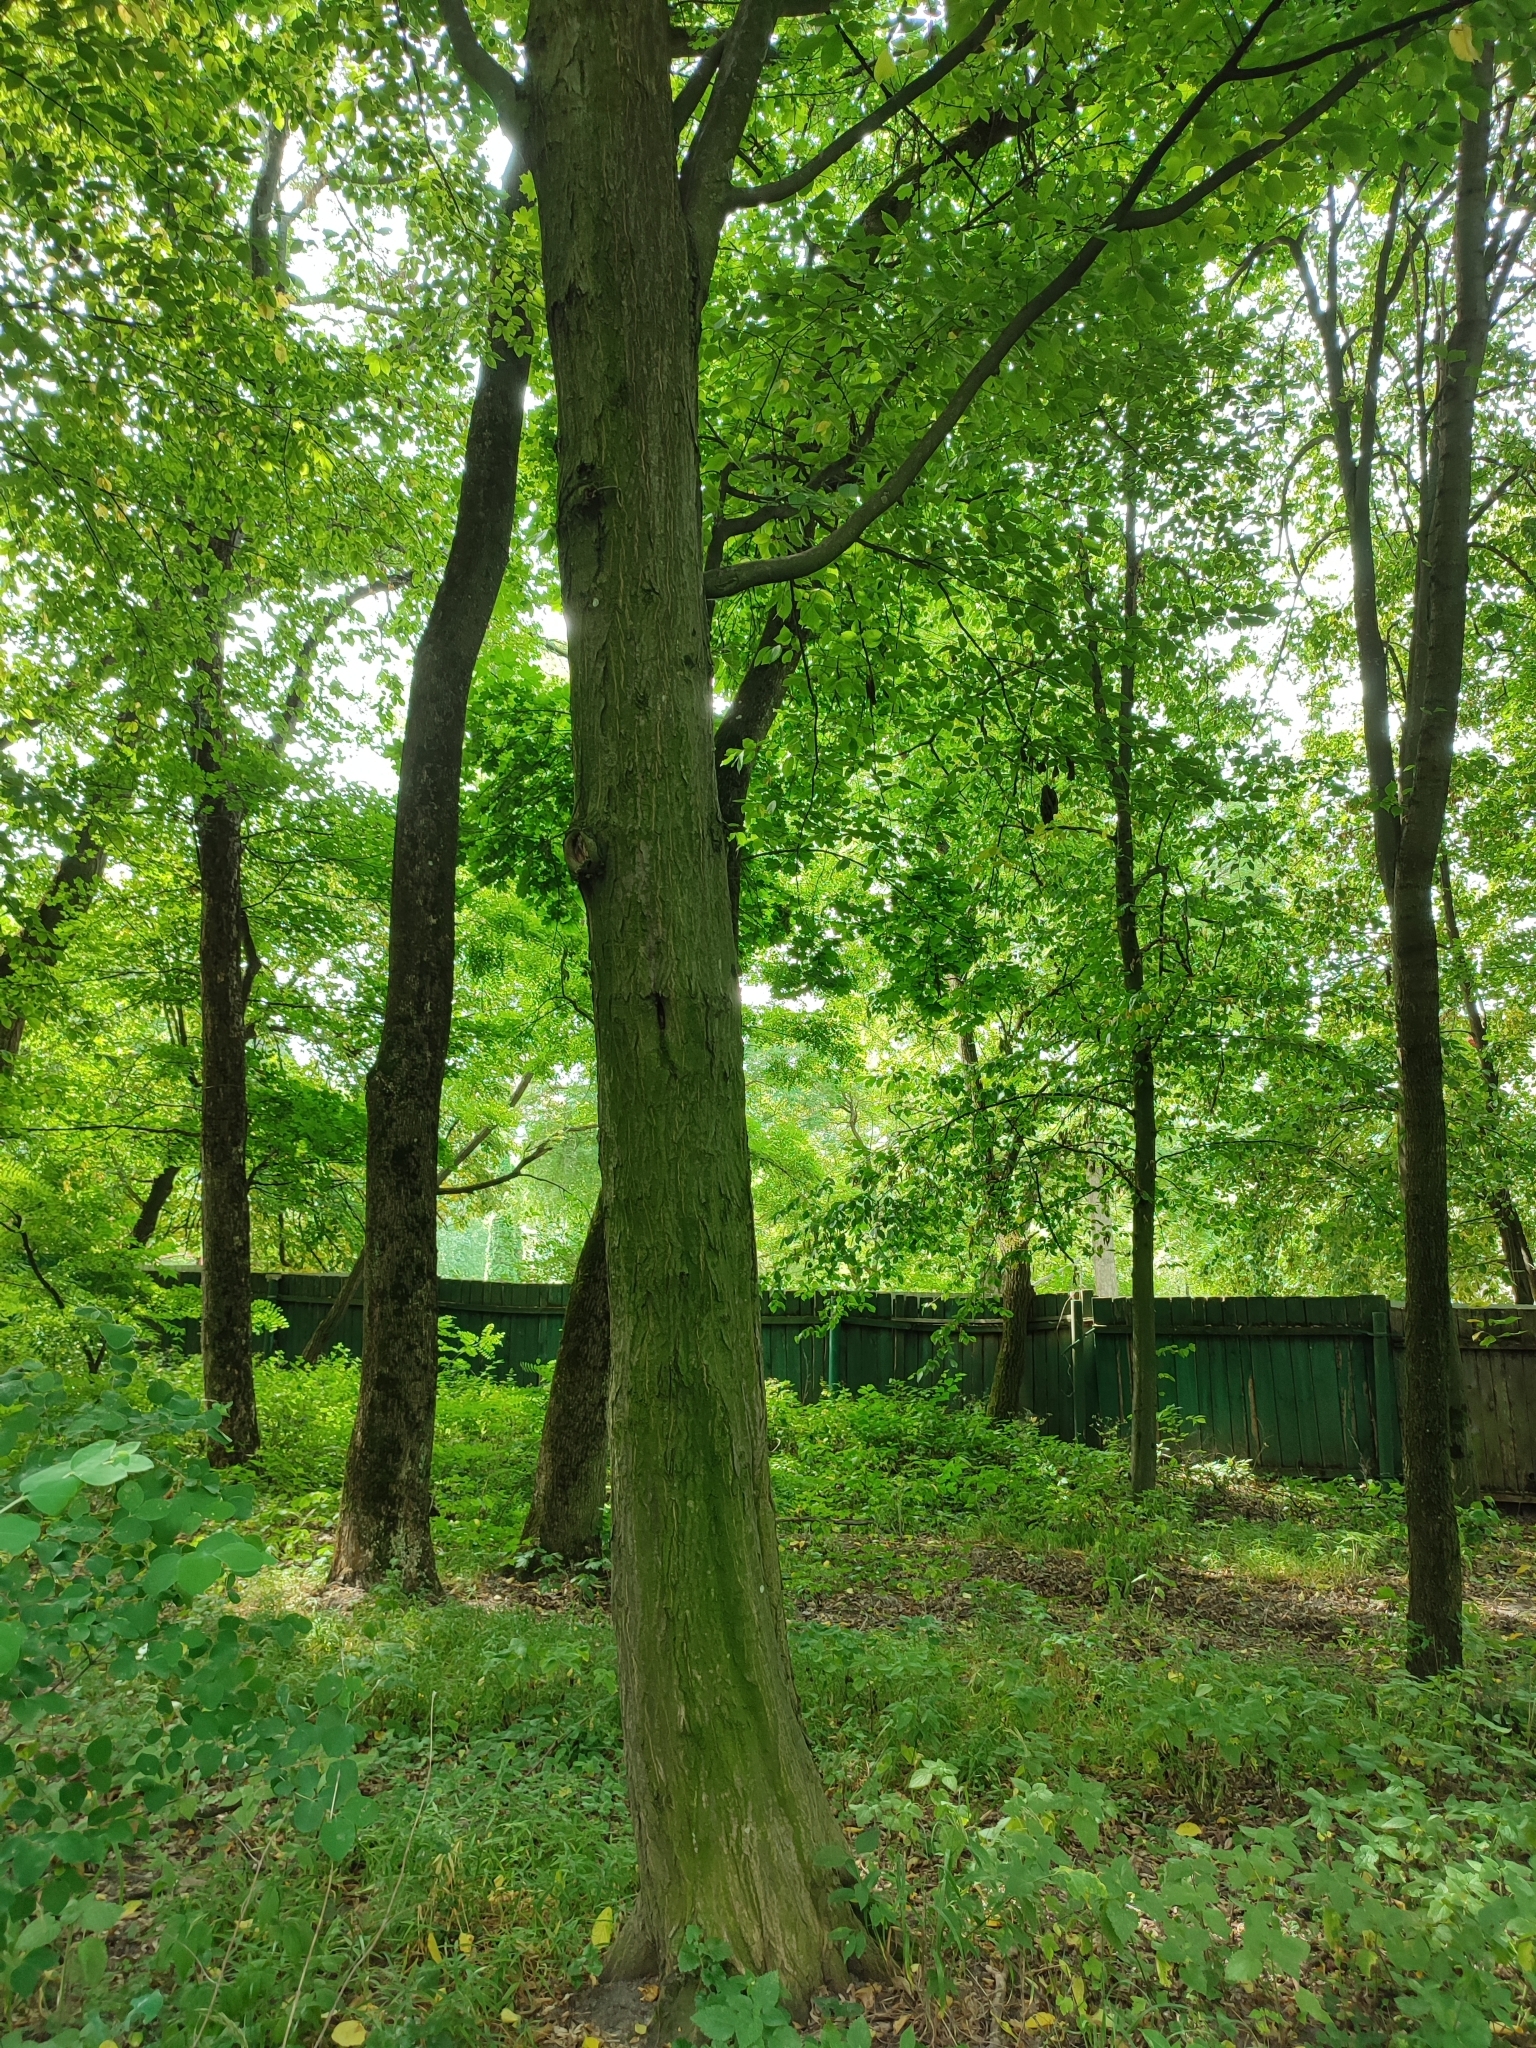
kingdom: Plantae
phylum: Tracheophyta
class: Magnoliopsida
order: Fagales
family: Betulaceae
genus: Carpinus
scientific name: Carpinus betulus
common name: Hornbeam
